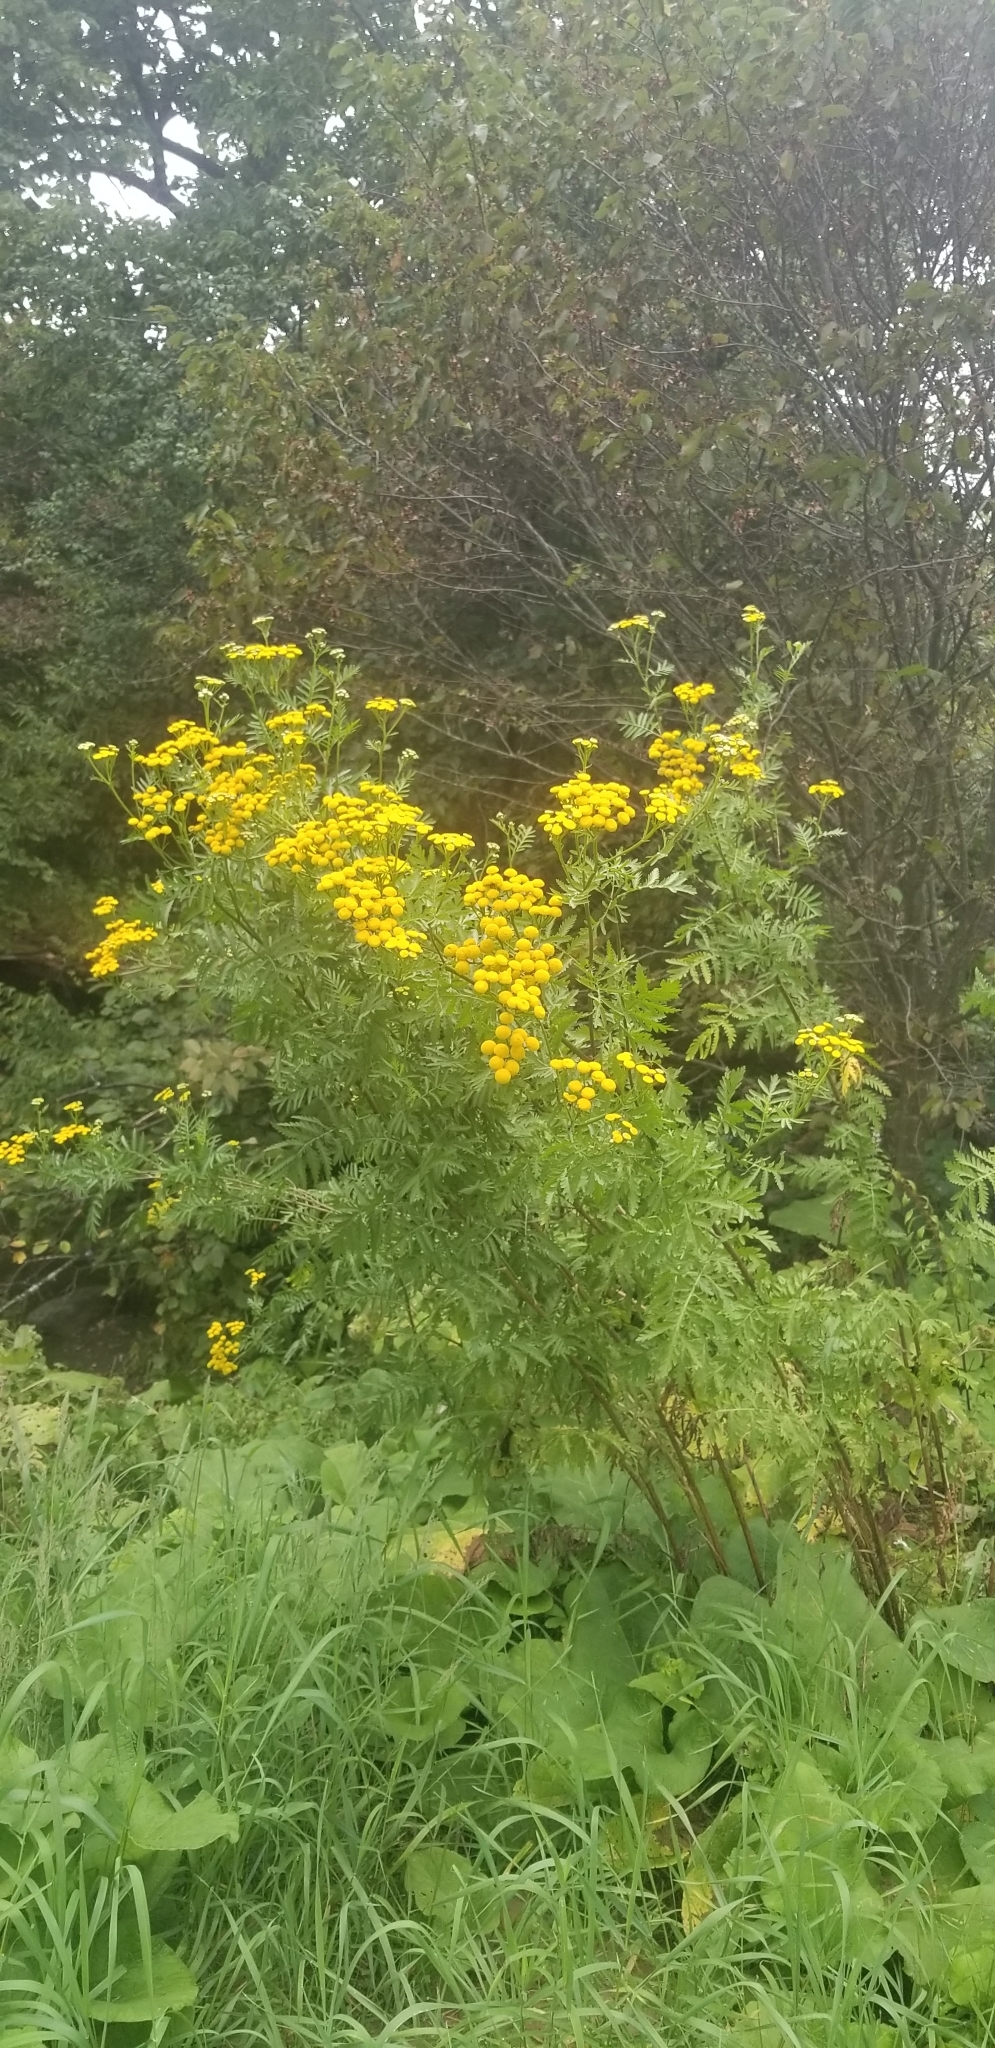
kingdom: Plantae
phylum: Tracheophyta
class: Magnoliopsida
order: Asterales
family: Asteraceae
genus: Tanacetum
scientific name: Tanacetum vulgare
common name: Common tansy
